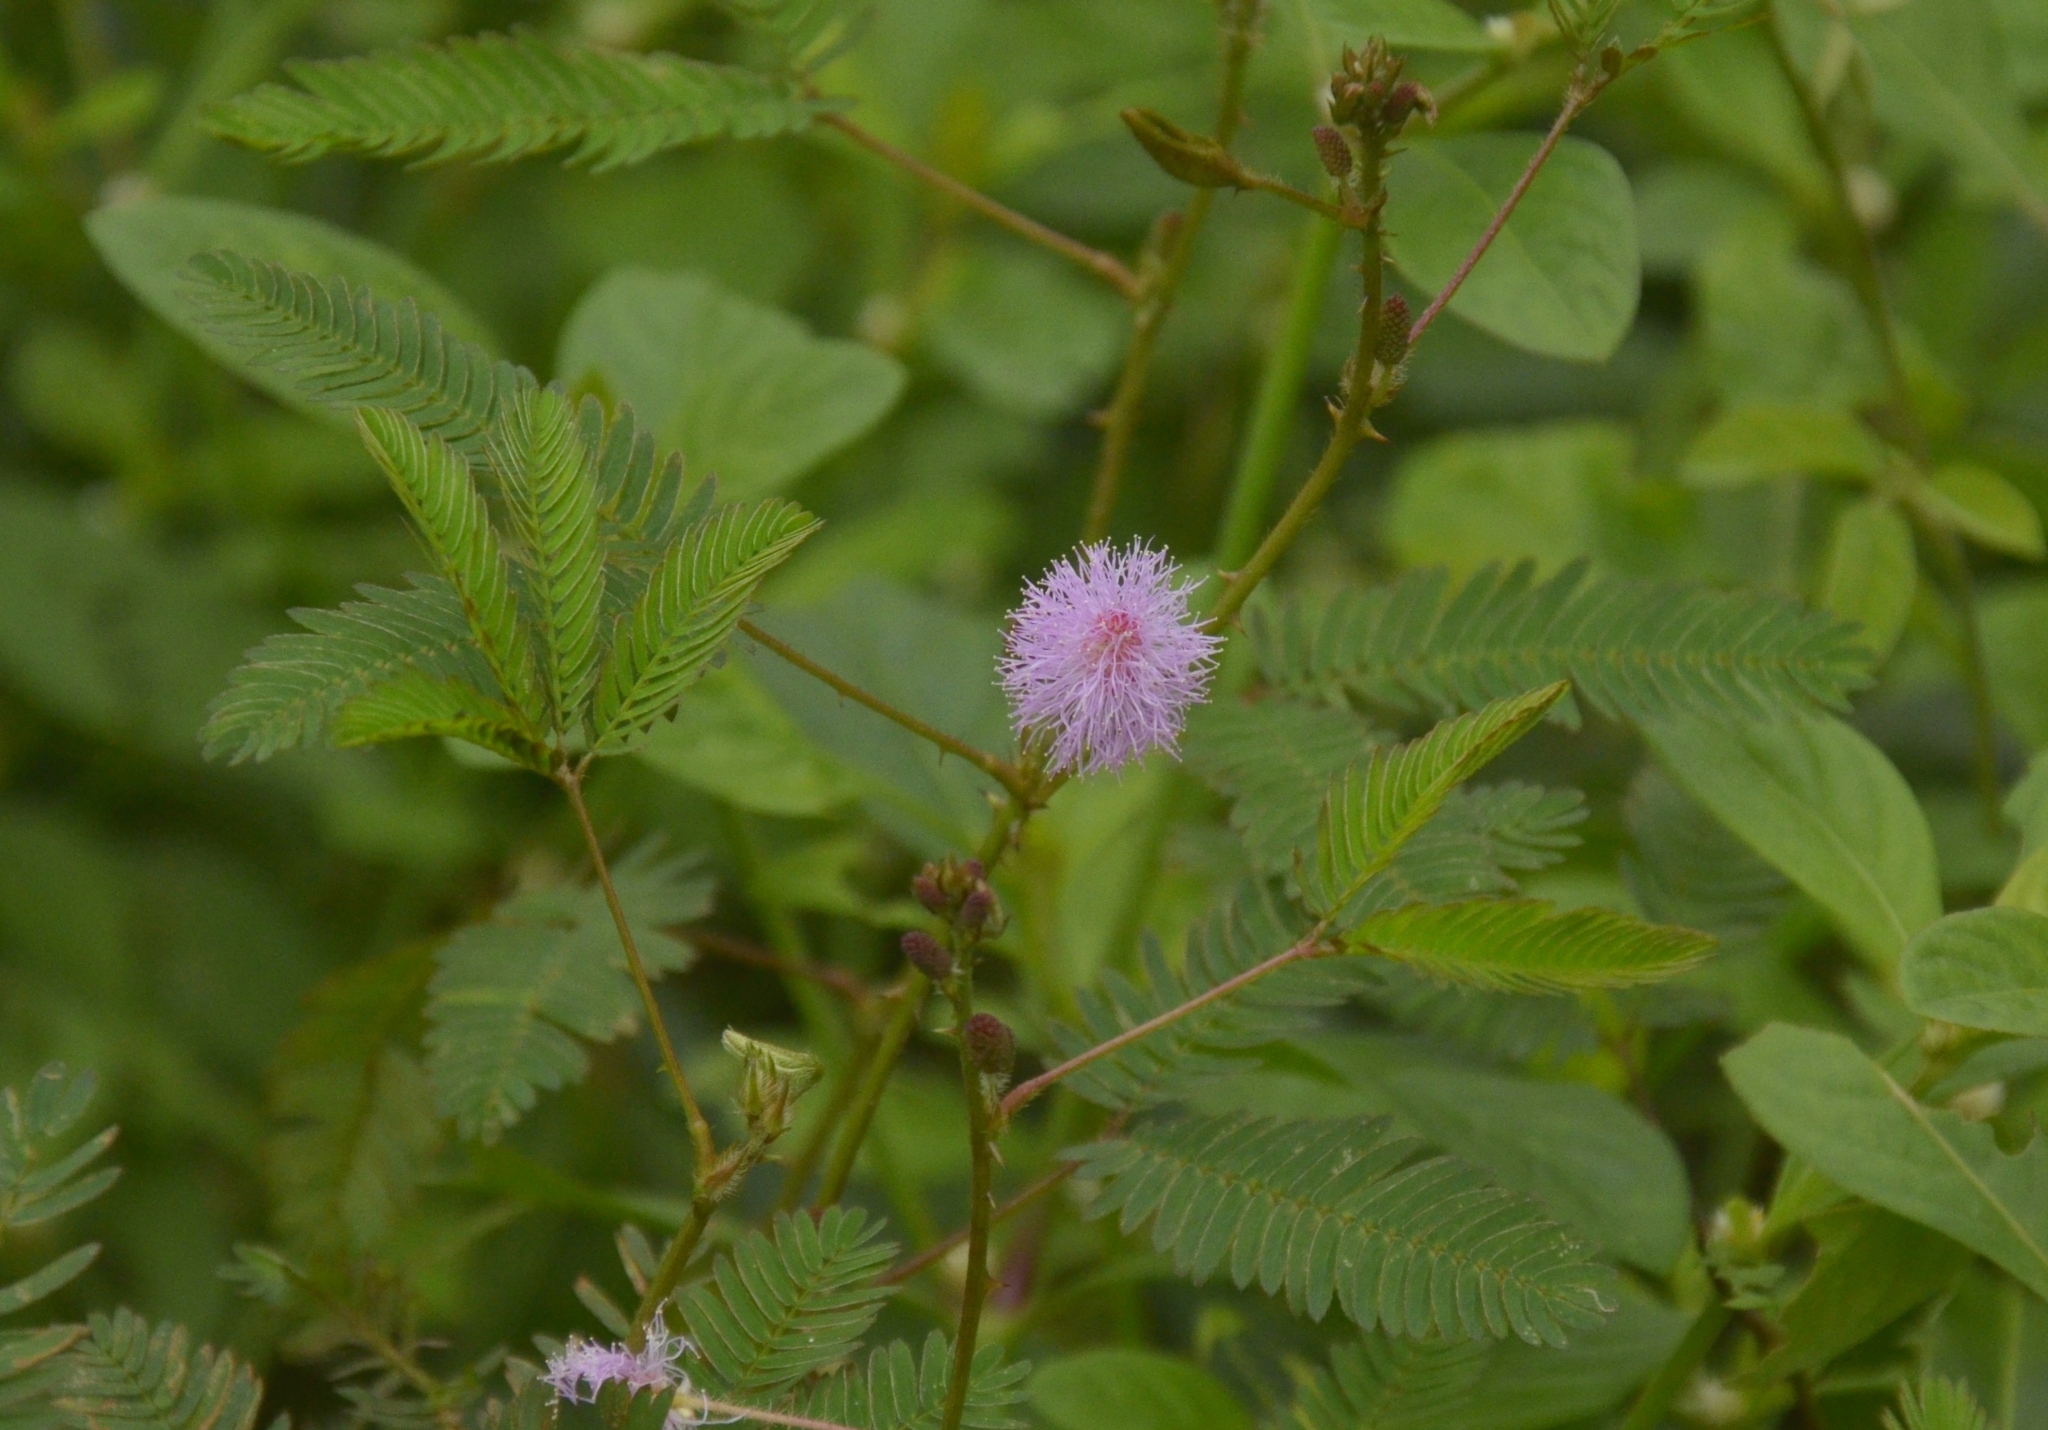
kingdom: Plantae
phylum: Tracheophyta
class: Magnoliopsida
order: Fabales
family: Fabaceae
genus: Mimosa
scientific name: Mimosa pudica
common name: Sensitive plant
